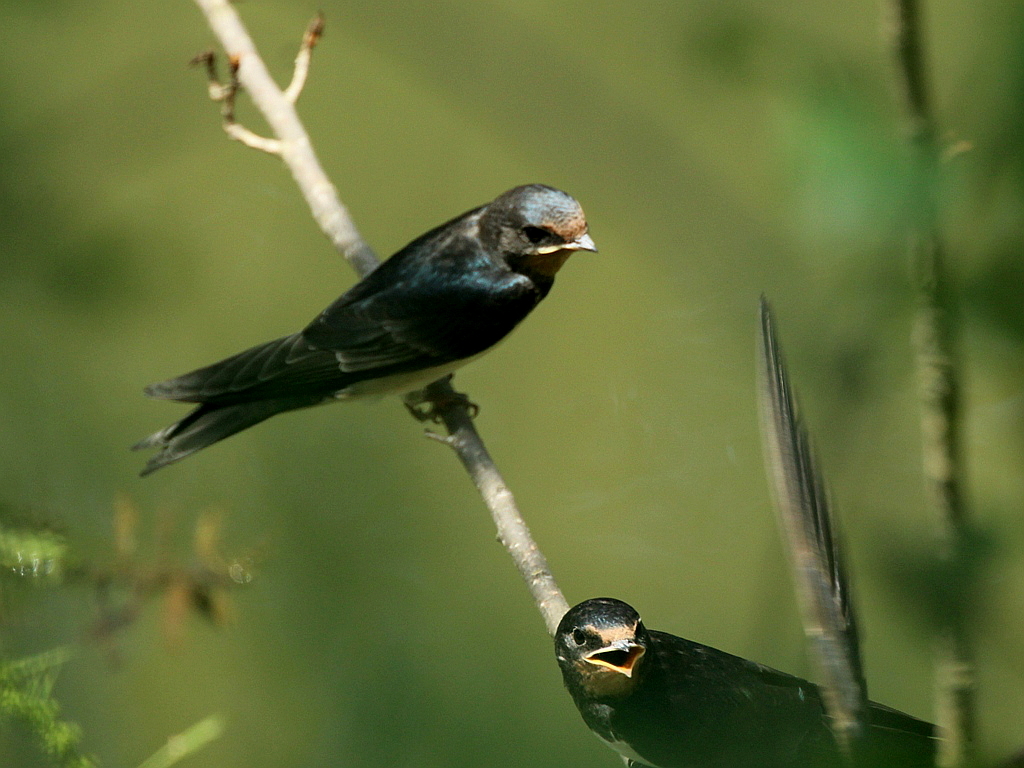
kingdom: Animalia
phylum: Chordata
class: Aves
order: Passeriformes
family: Hirundinidae
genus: Hirundo
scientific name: Hirundo rustica
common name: Barn swallow
